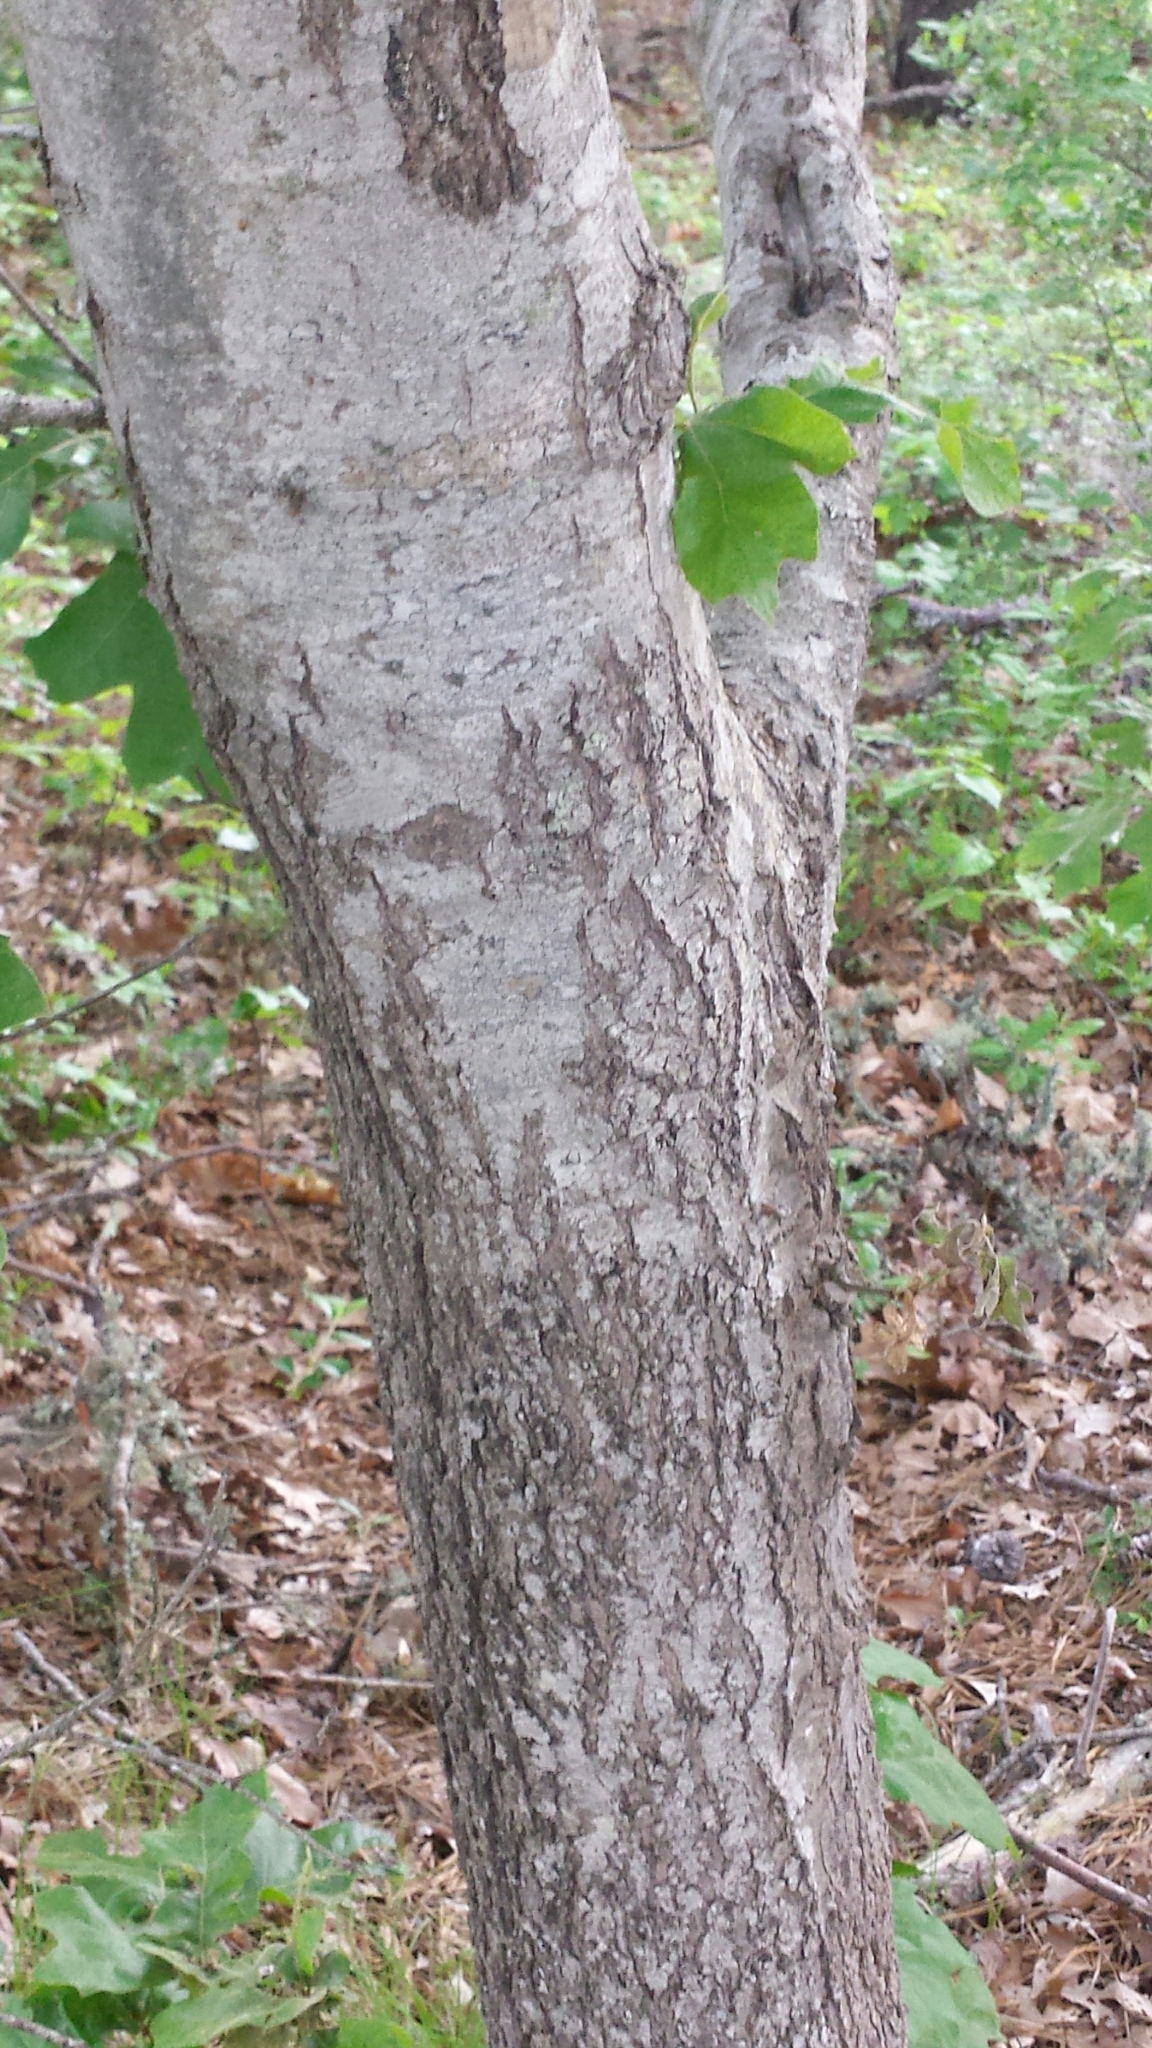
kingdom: Plantae
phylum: Tracheophyta
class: Magnoliopsida
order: Fagales
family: Fagaceae
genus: Quercus
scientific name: Quercus velutina
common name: Black oak
